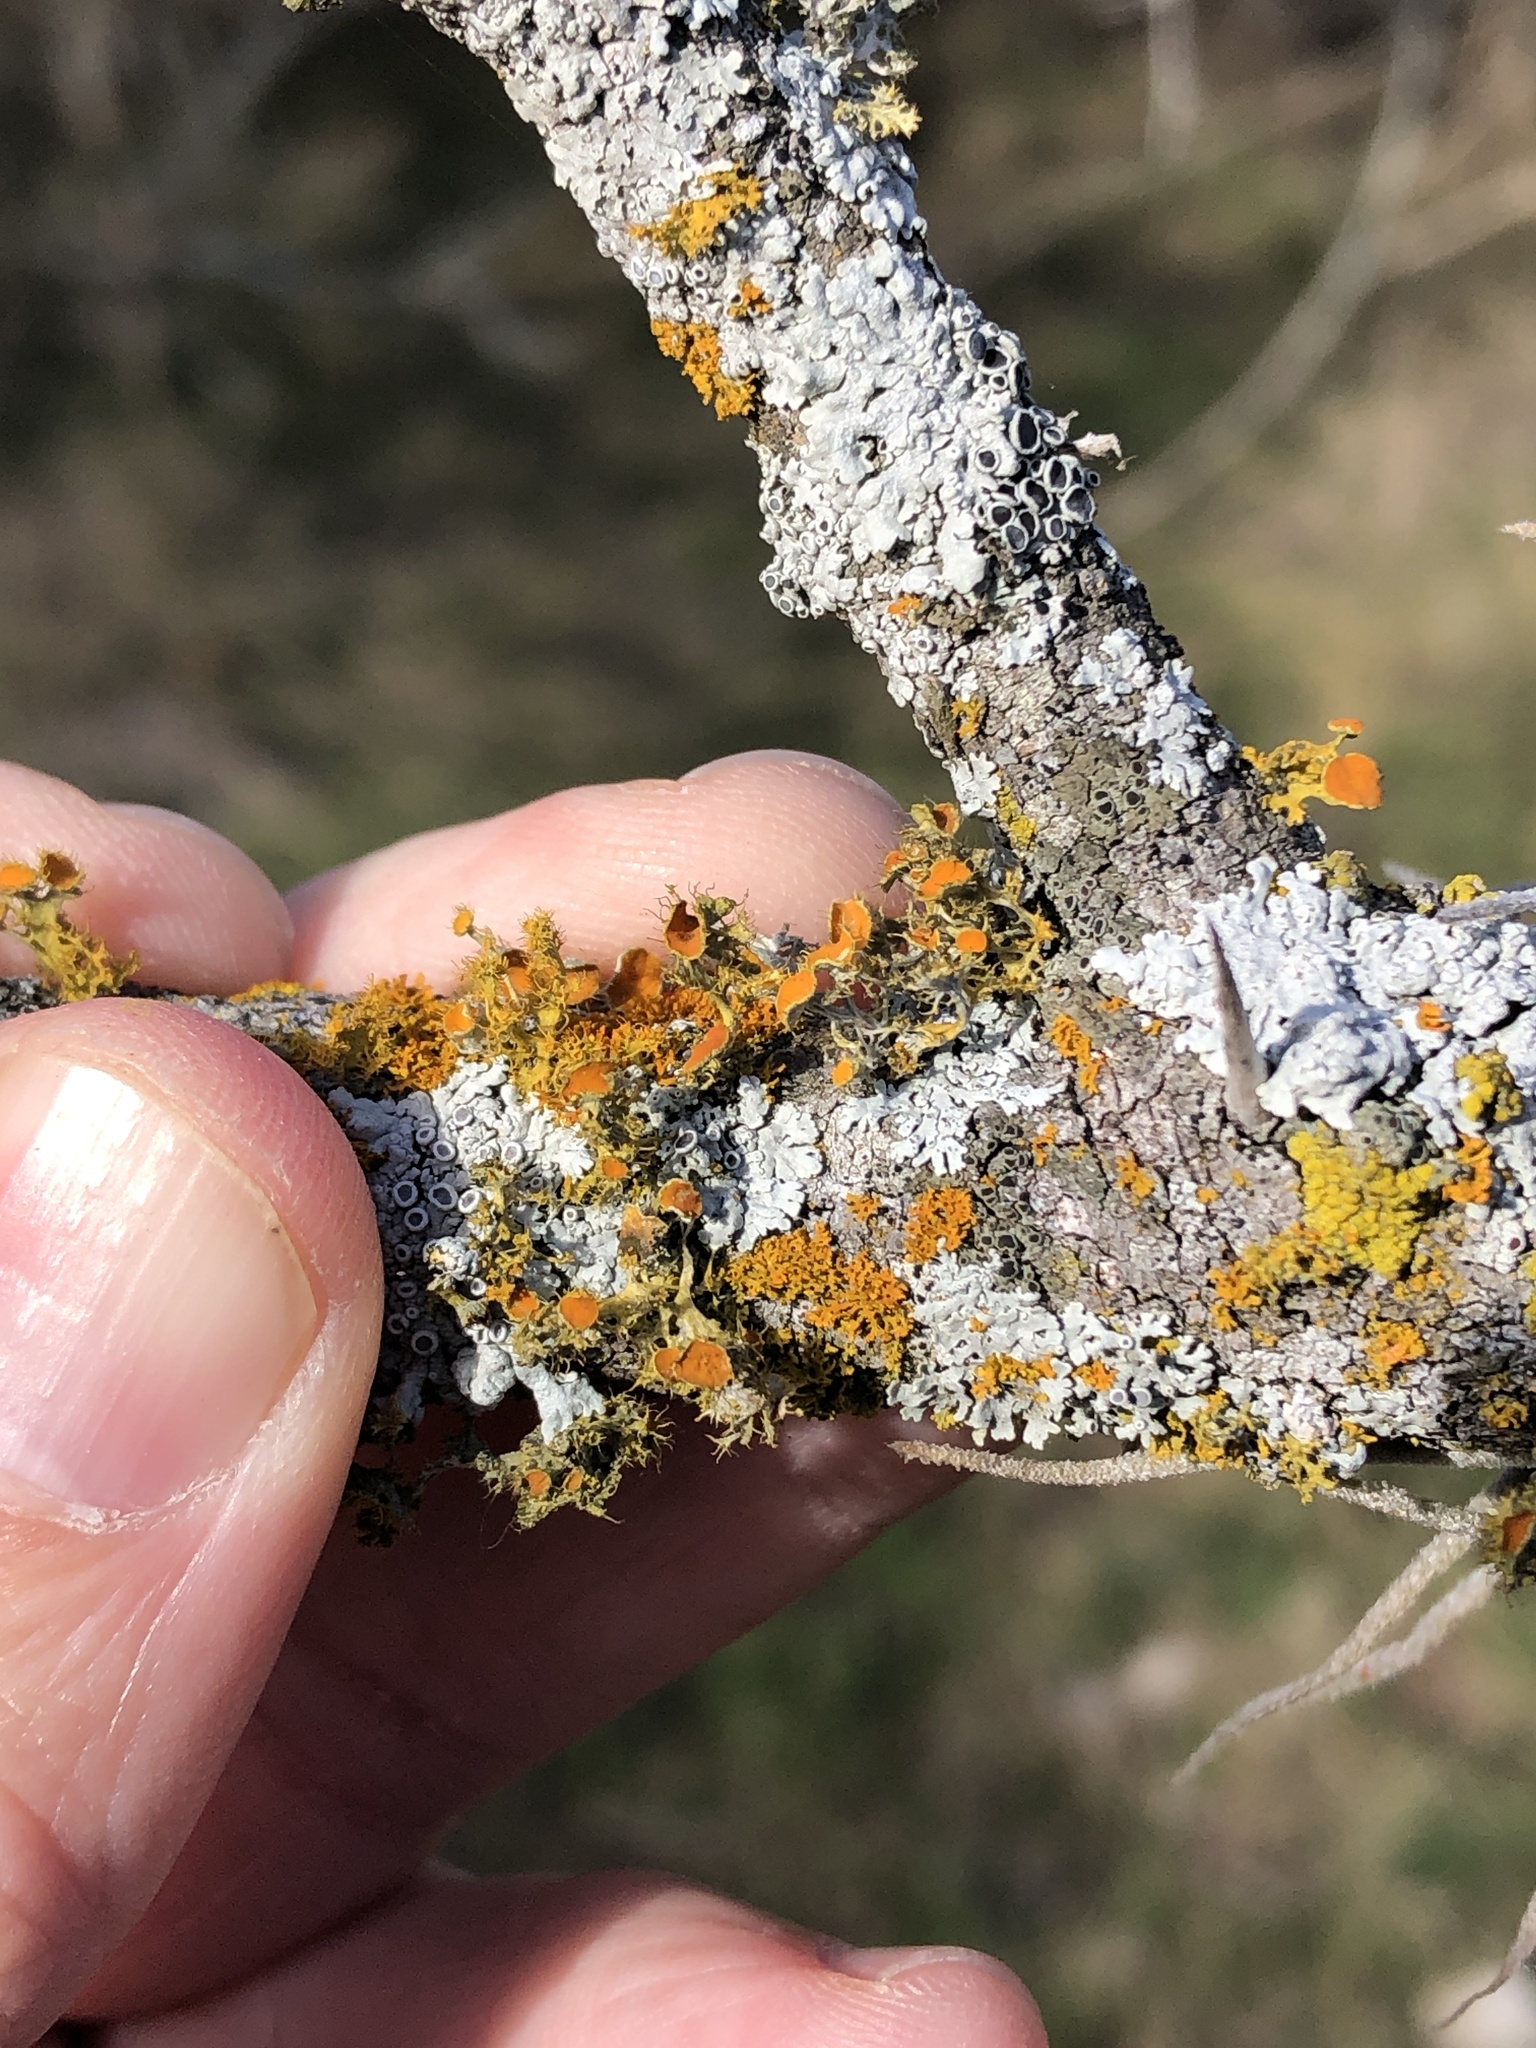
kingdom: Fungi
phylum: Ascomycota
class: Lecanoromycetes
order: Teloschistales
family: Teloschistaceae
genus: Niorma
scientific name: Niorma chrysophthalma
